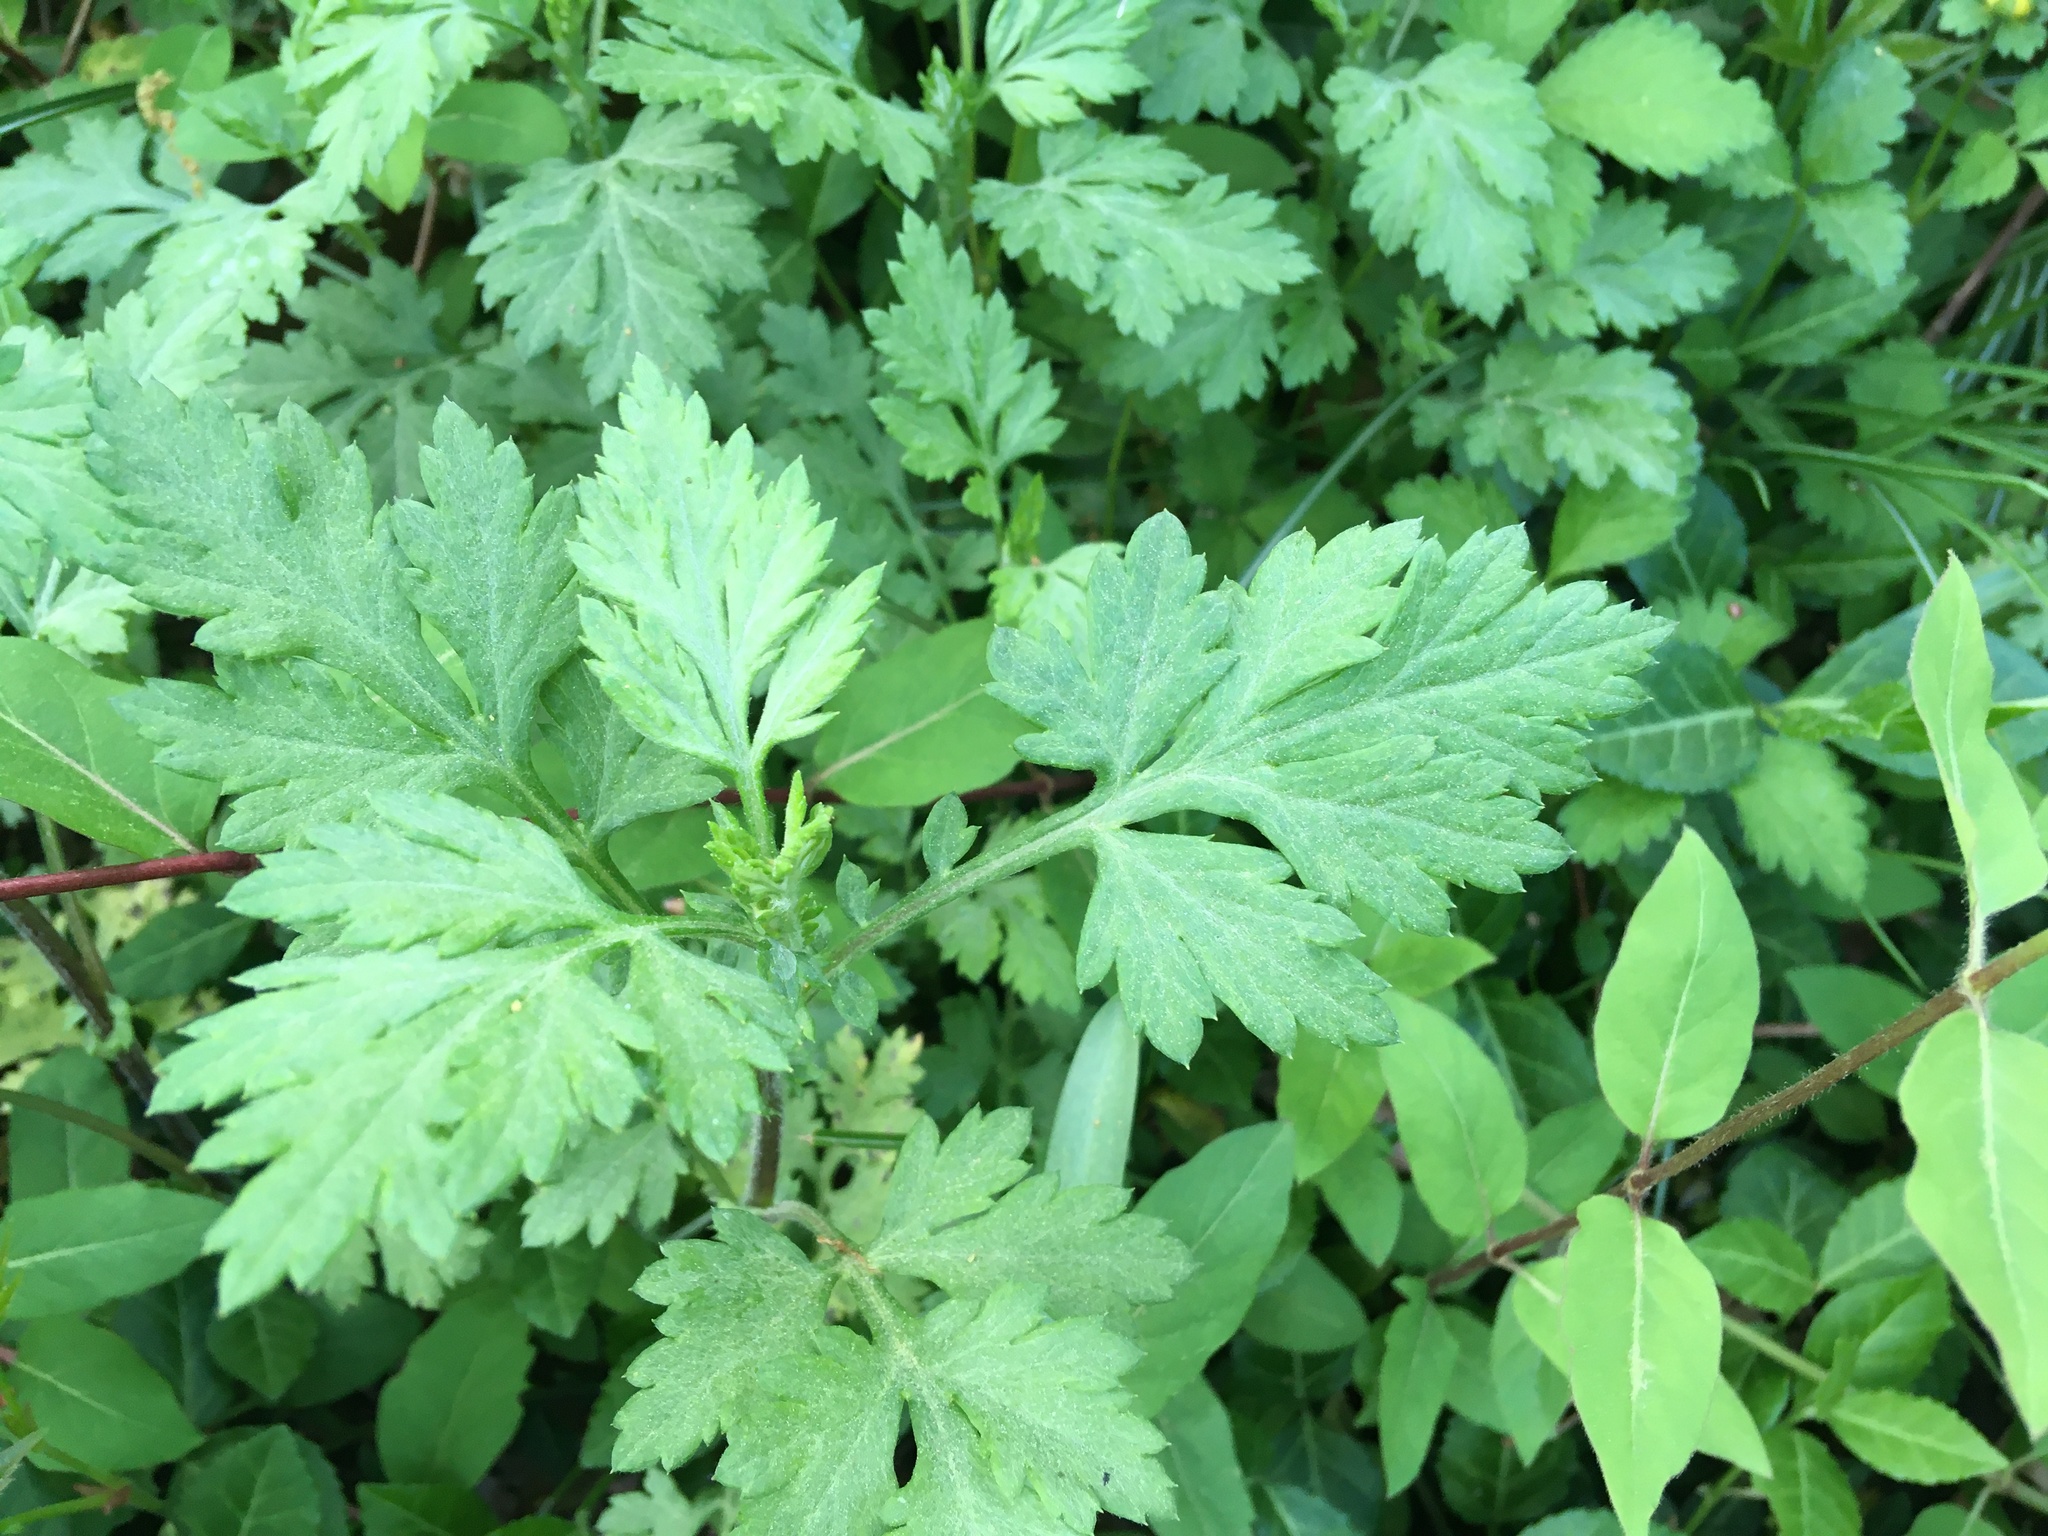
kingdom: Plantae
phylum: Tracheophyta
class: Magnoliopsida
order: Asterales
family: Asteraceae
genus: Artemisia
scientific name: Artemisia vulgaris
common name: Mugwort
